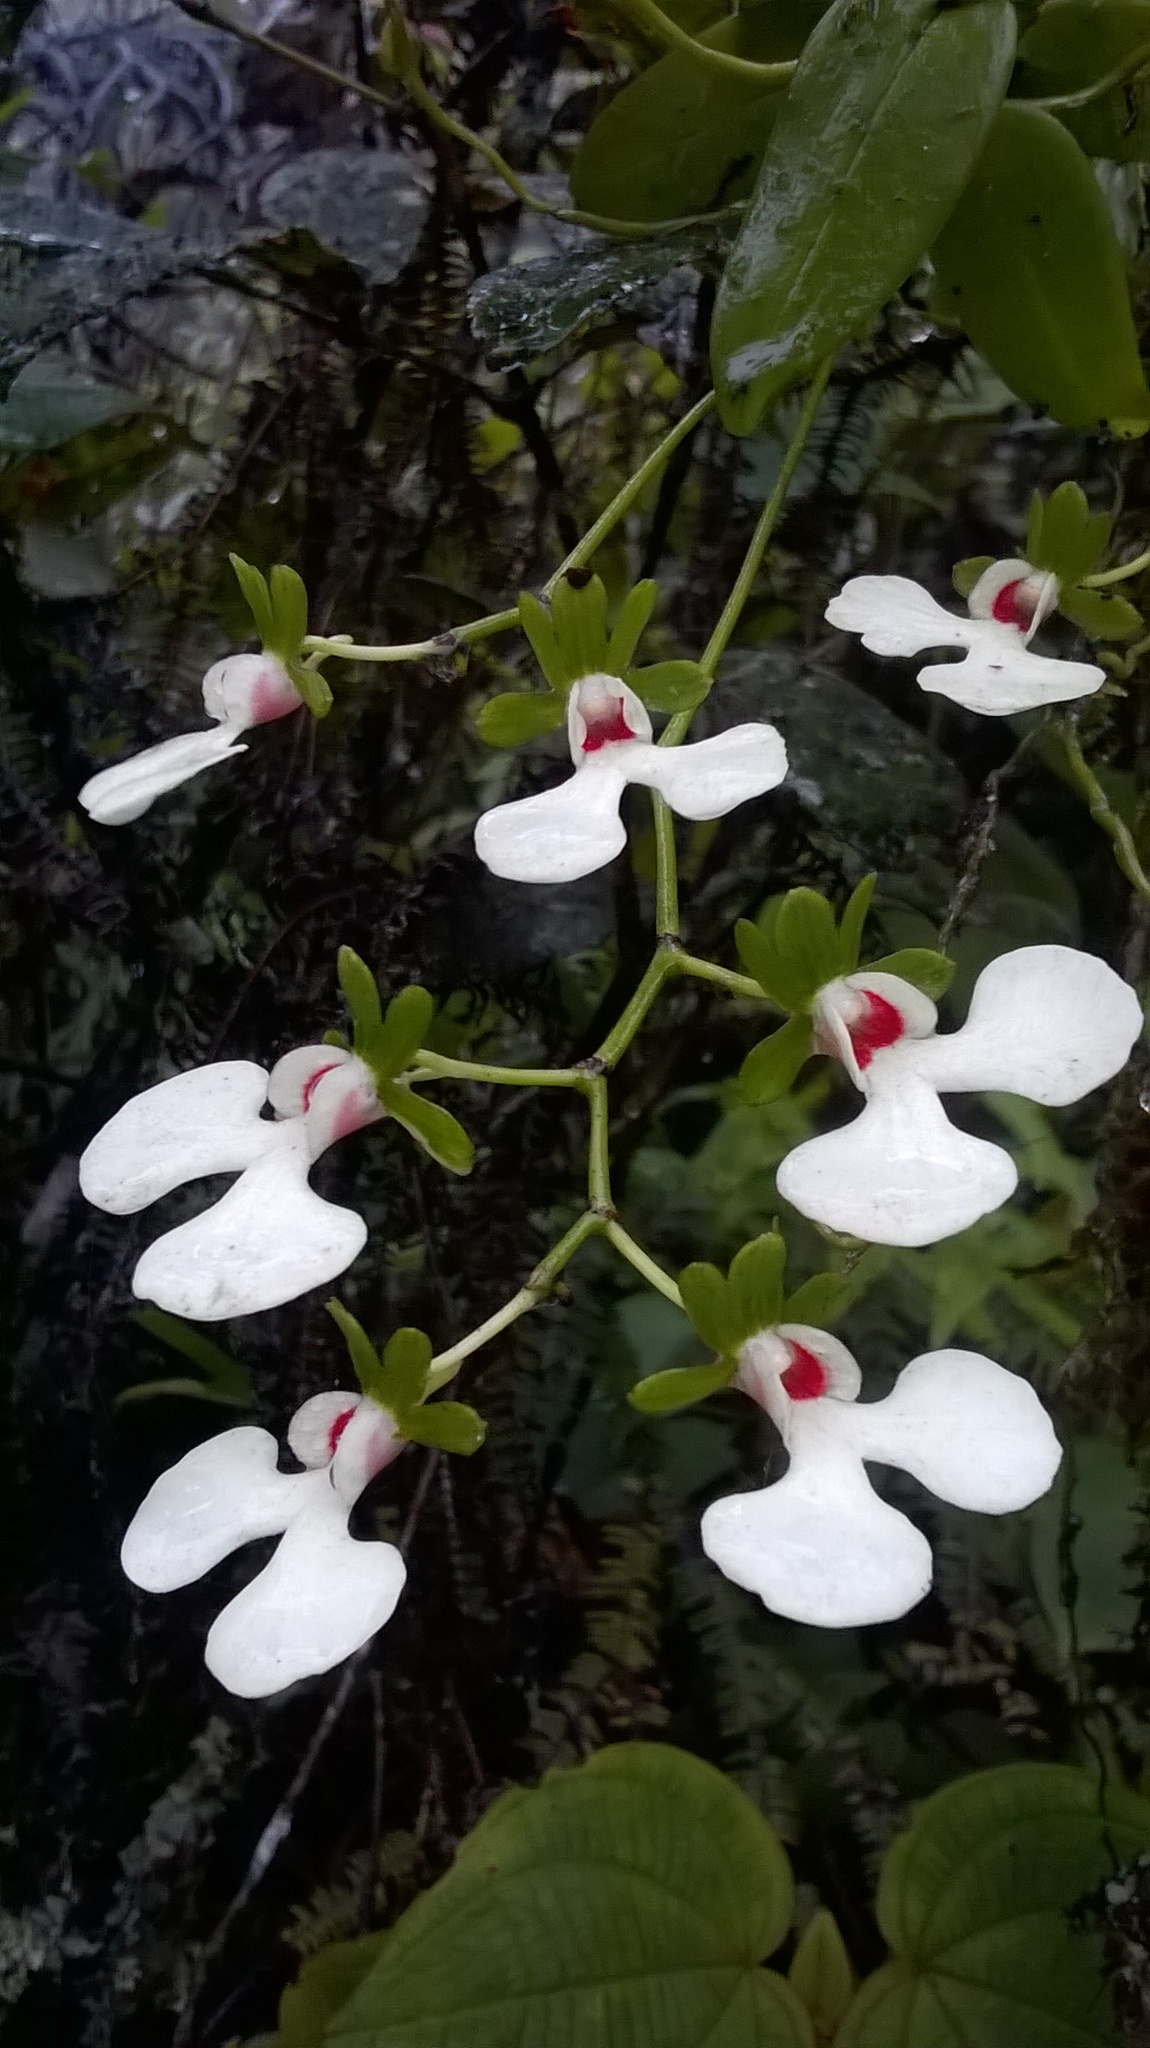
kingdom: Plantae
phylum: Tracheophyta
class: Liliopsida
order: Asparagales
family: Orchidaceae
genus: Oeonia
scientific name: Oeonia rosea
